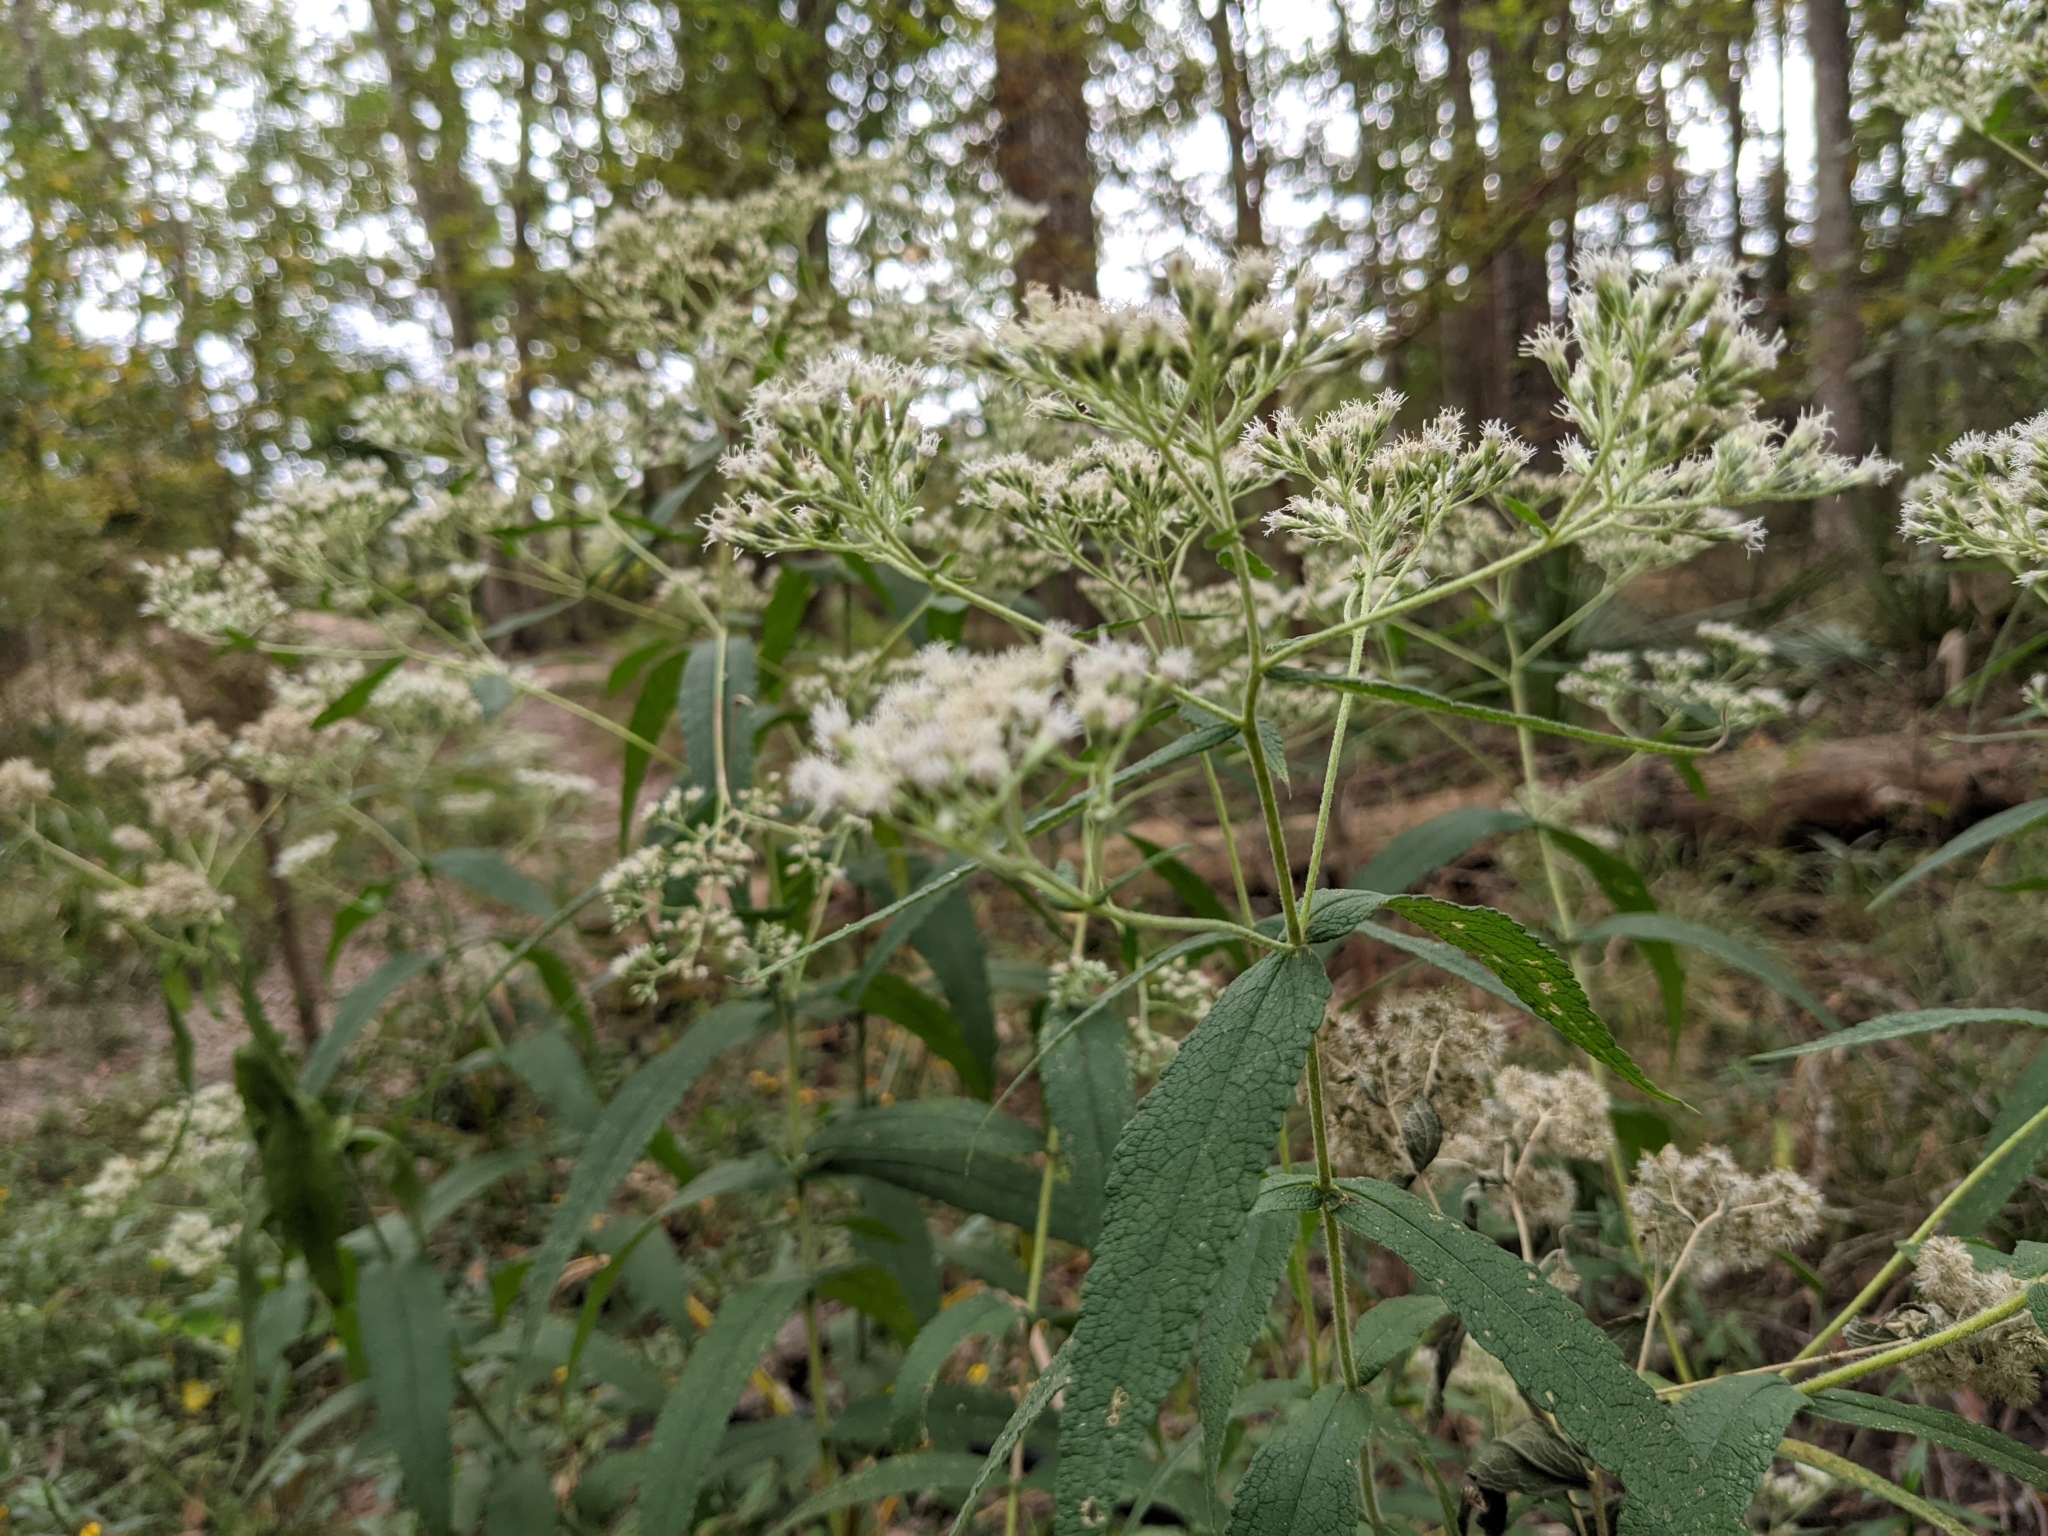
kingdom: Plantae
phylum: Tracheophyta
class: Magnoliopsida
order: Asterales
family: Asteraceae
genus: Eupatorium
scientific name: Eupatorium perfoliatum
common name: Boneset
